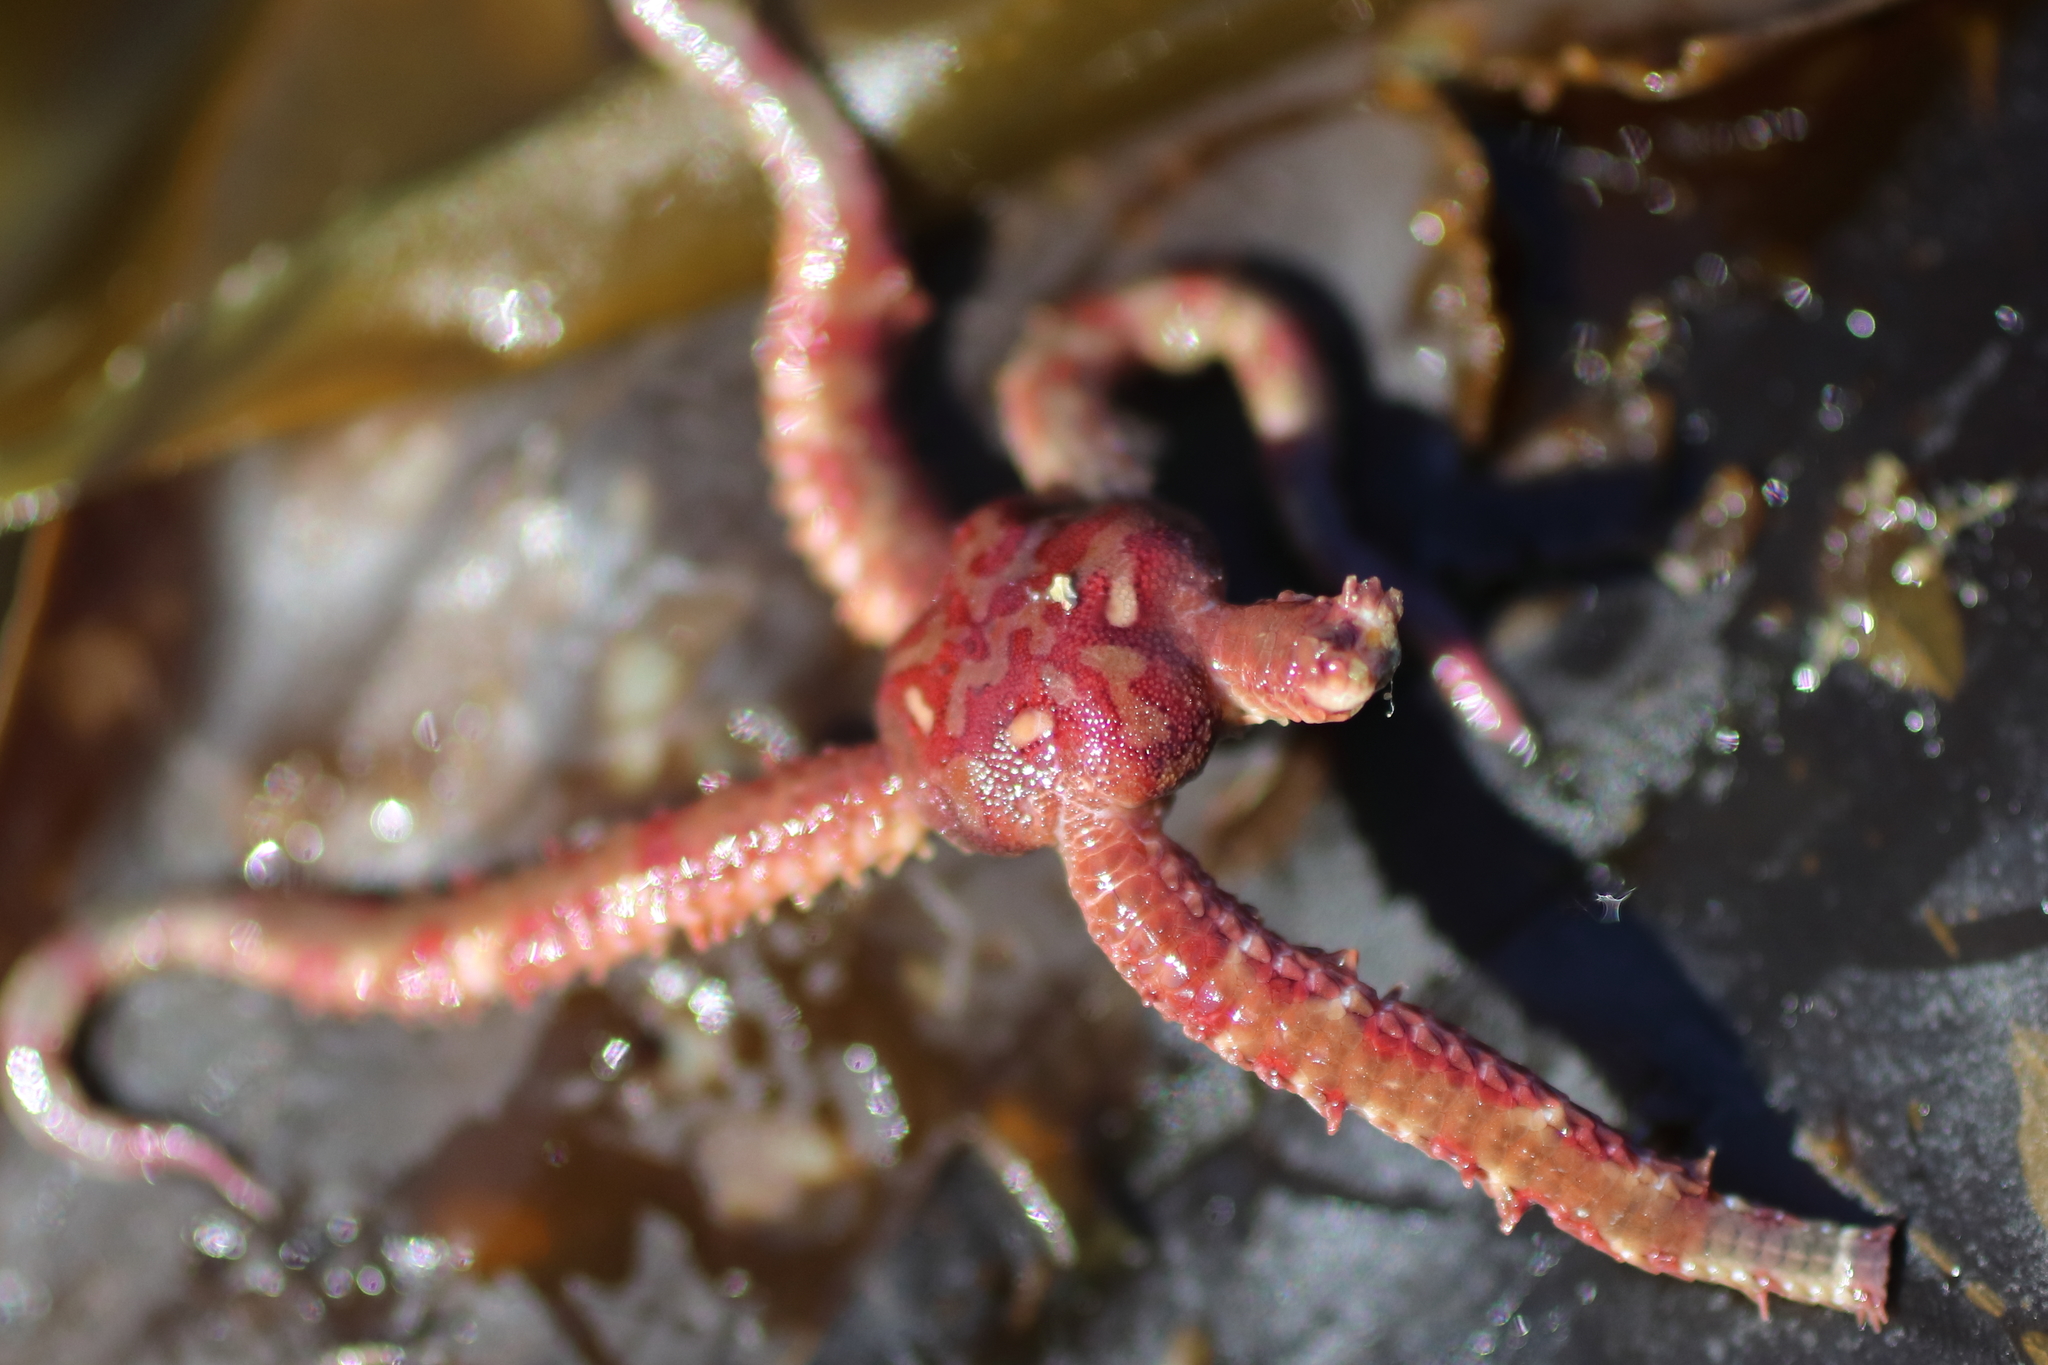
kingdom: Animalia
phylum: Echinodermata
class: Ophiuroidea
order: Amphilepidida
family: Ophiopholidae
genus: Ophiopholis
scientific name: Ophiopholis kennerlyi
